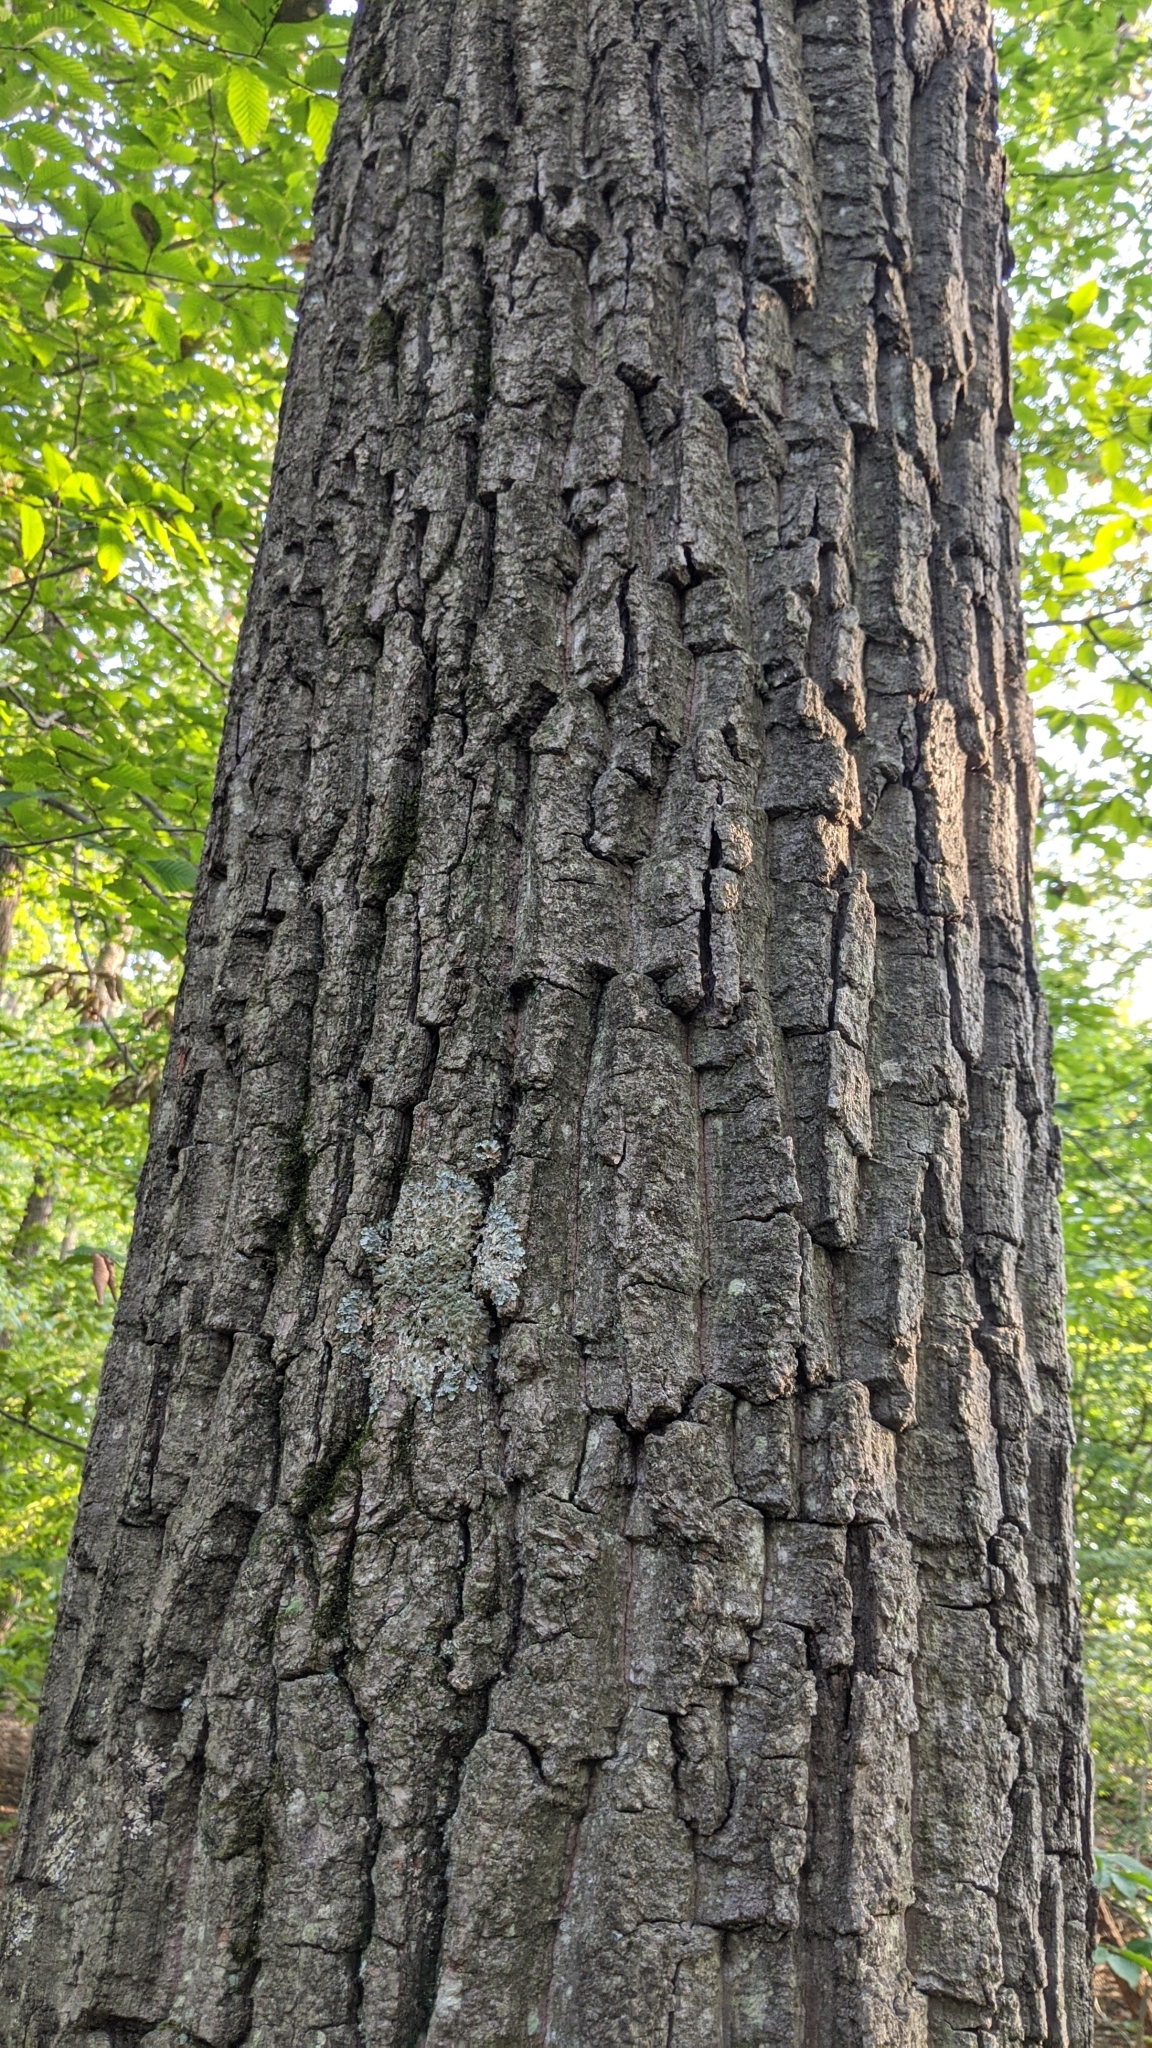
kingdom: Plantae
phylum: Tracheophyta
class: Magnoliopsida
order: Fagales
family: Fagaceae
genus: Quercus
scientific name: Quercus montana
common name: Chestnut oak
